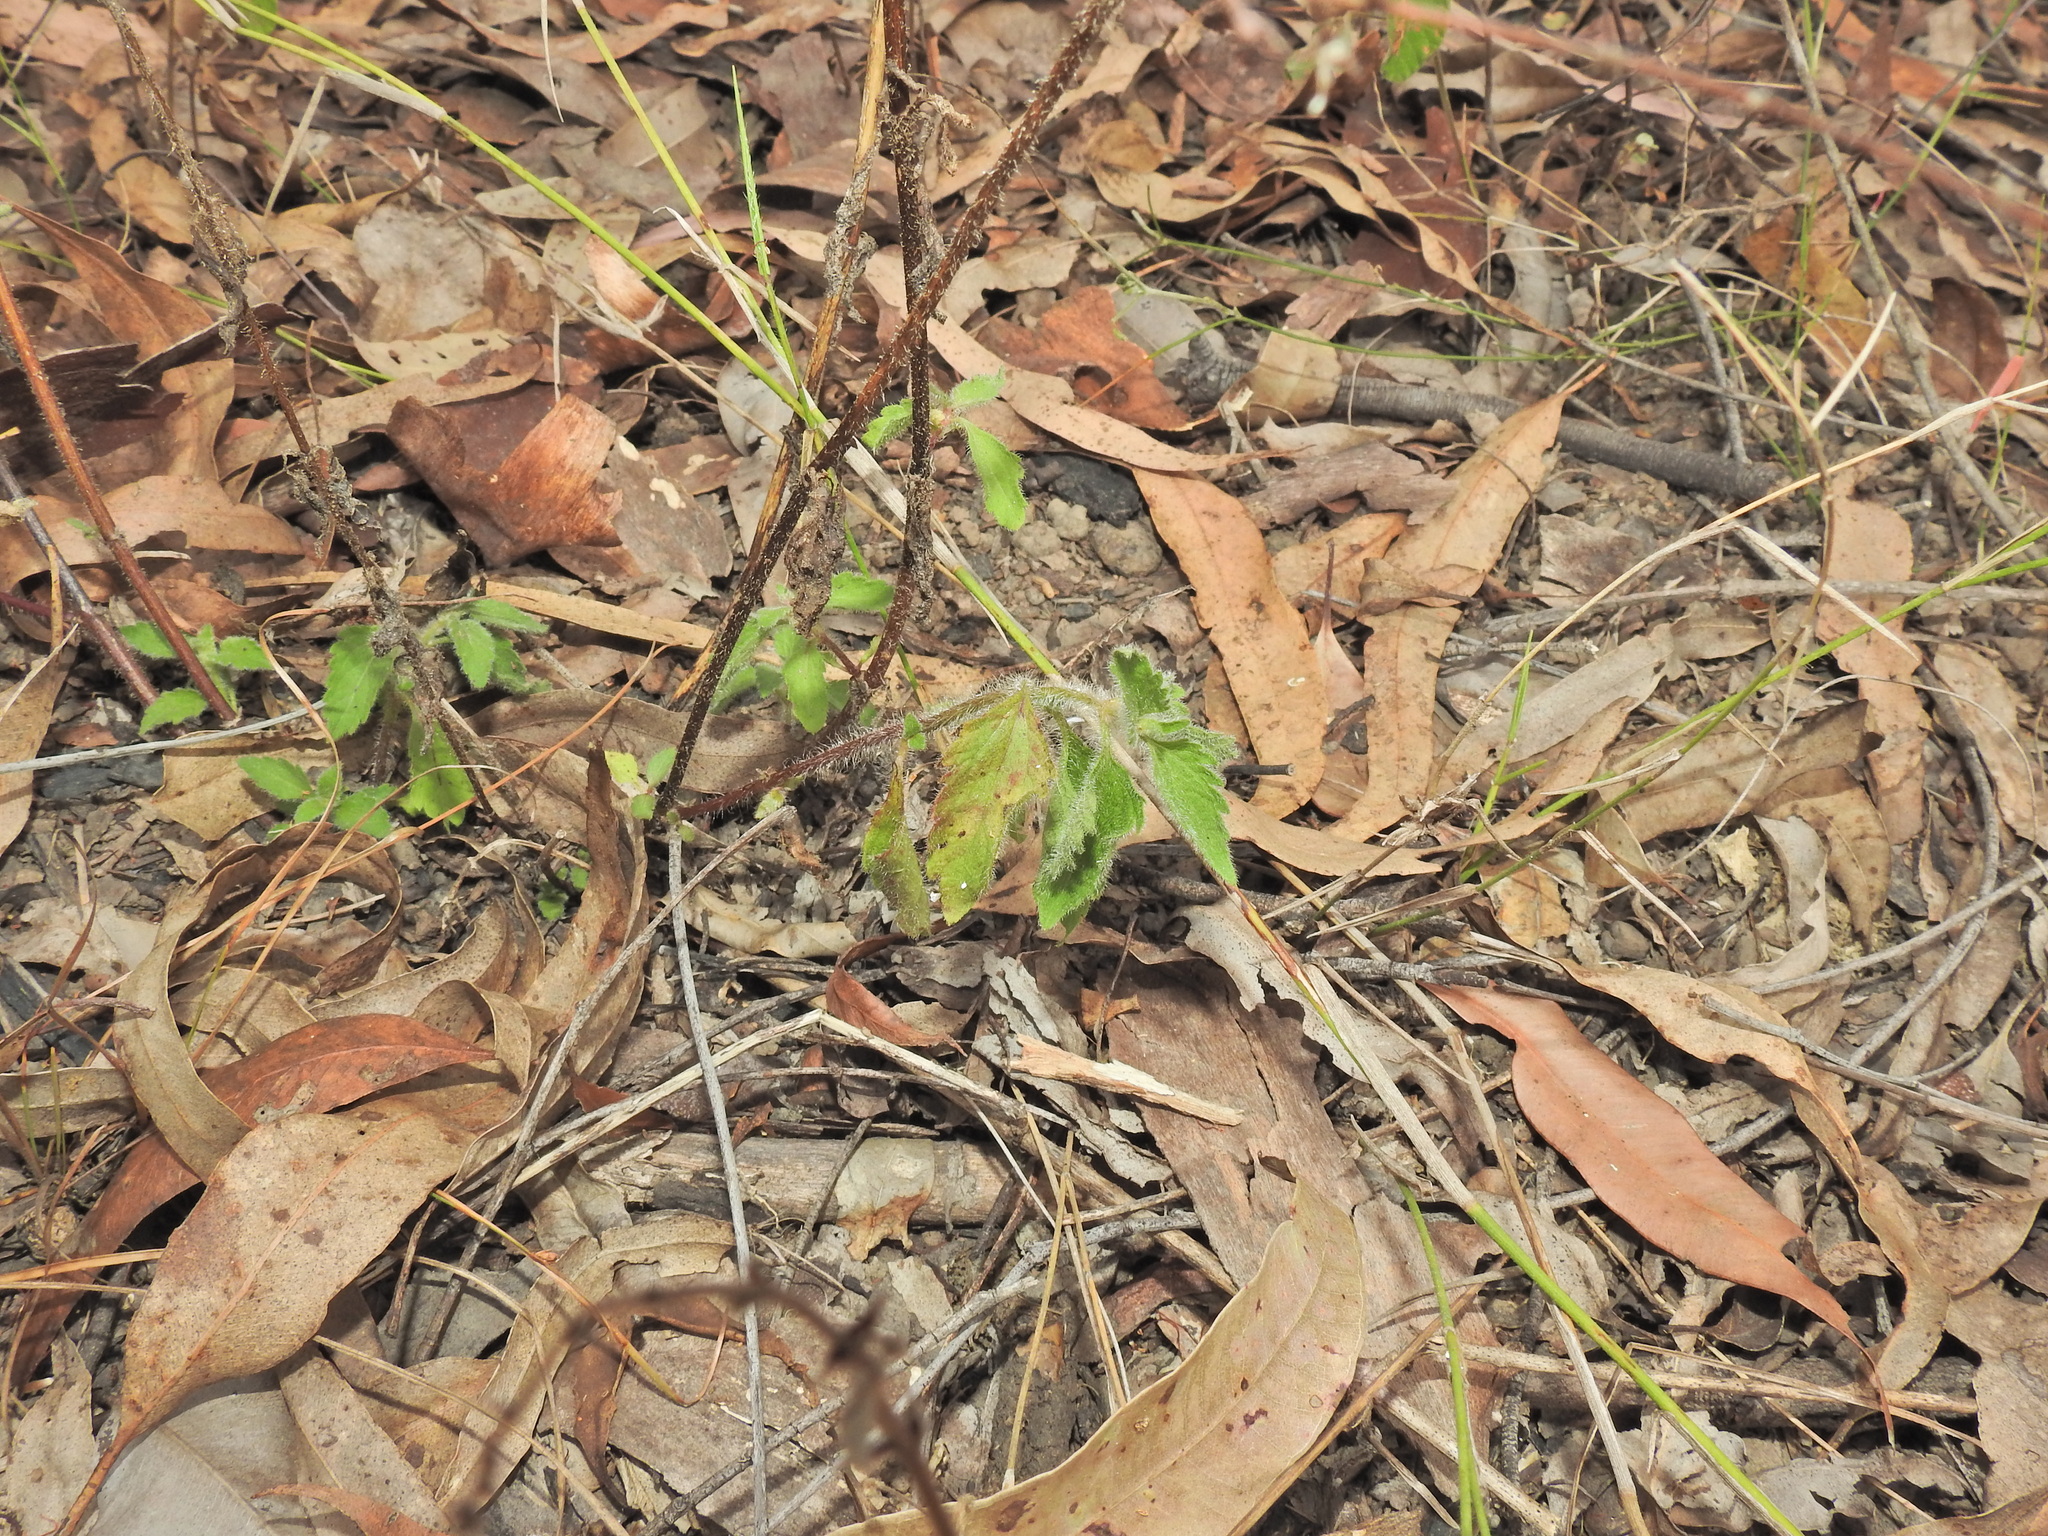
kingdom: Plantae
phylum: Tracheophyta
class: Magnoliopsida
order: Asterales
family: Asteraceae
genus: Praxelis
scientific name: Praxelis clematidea
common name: Praxelis
